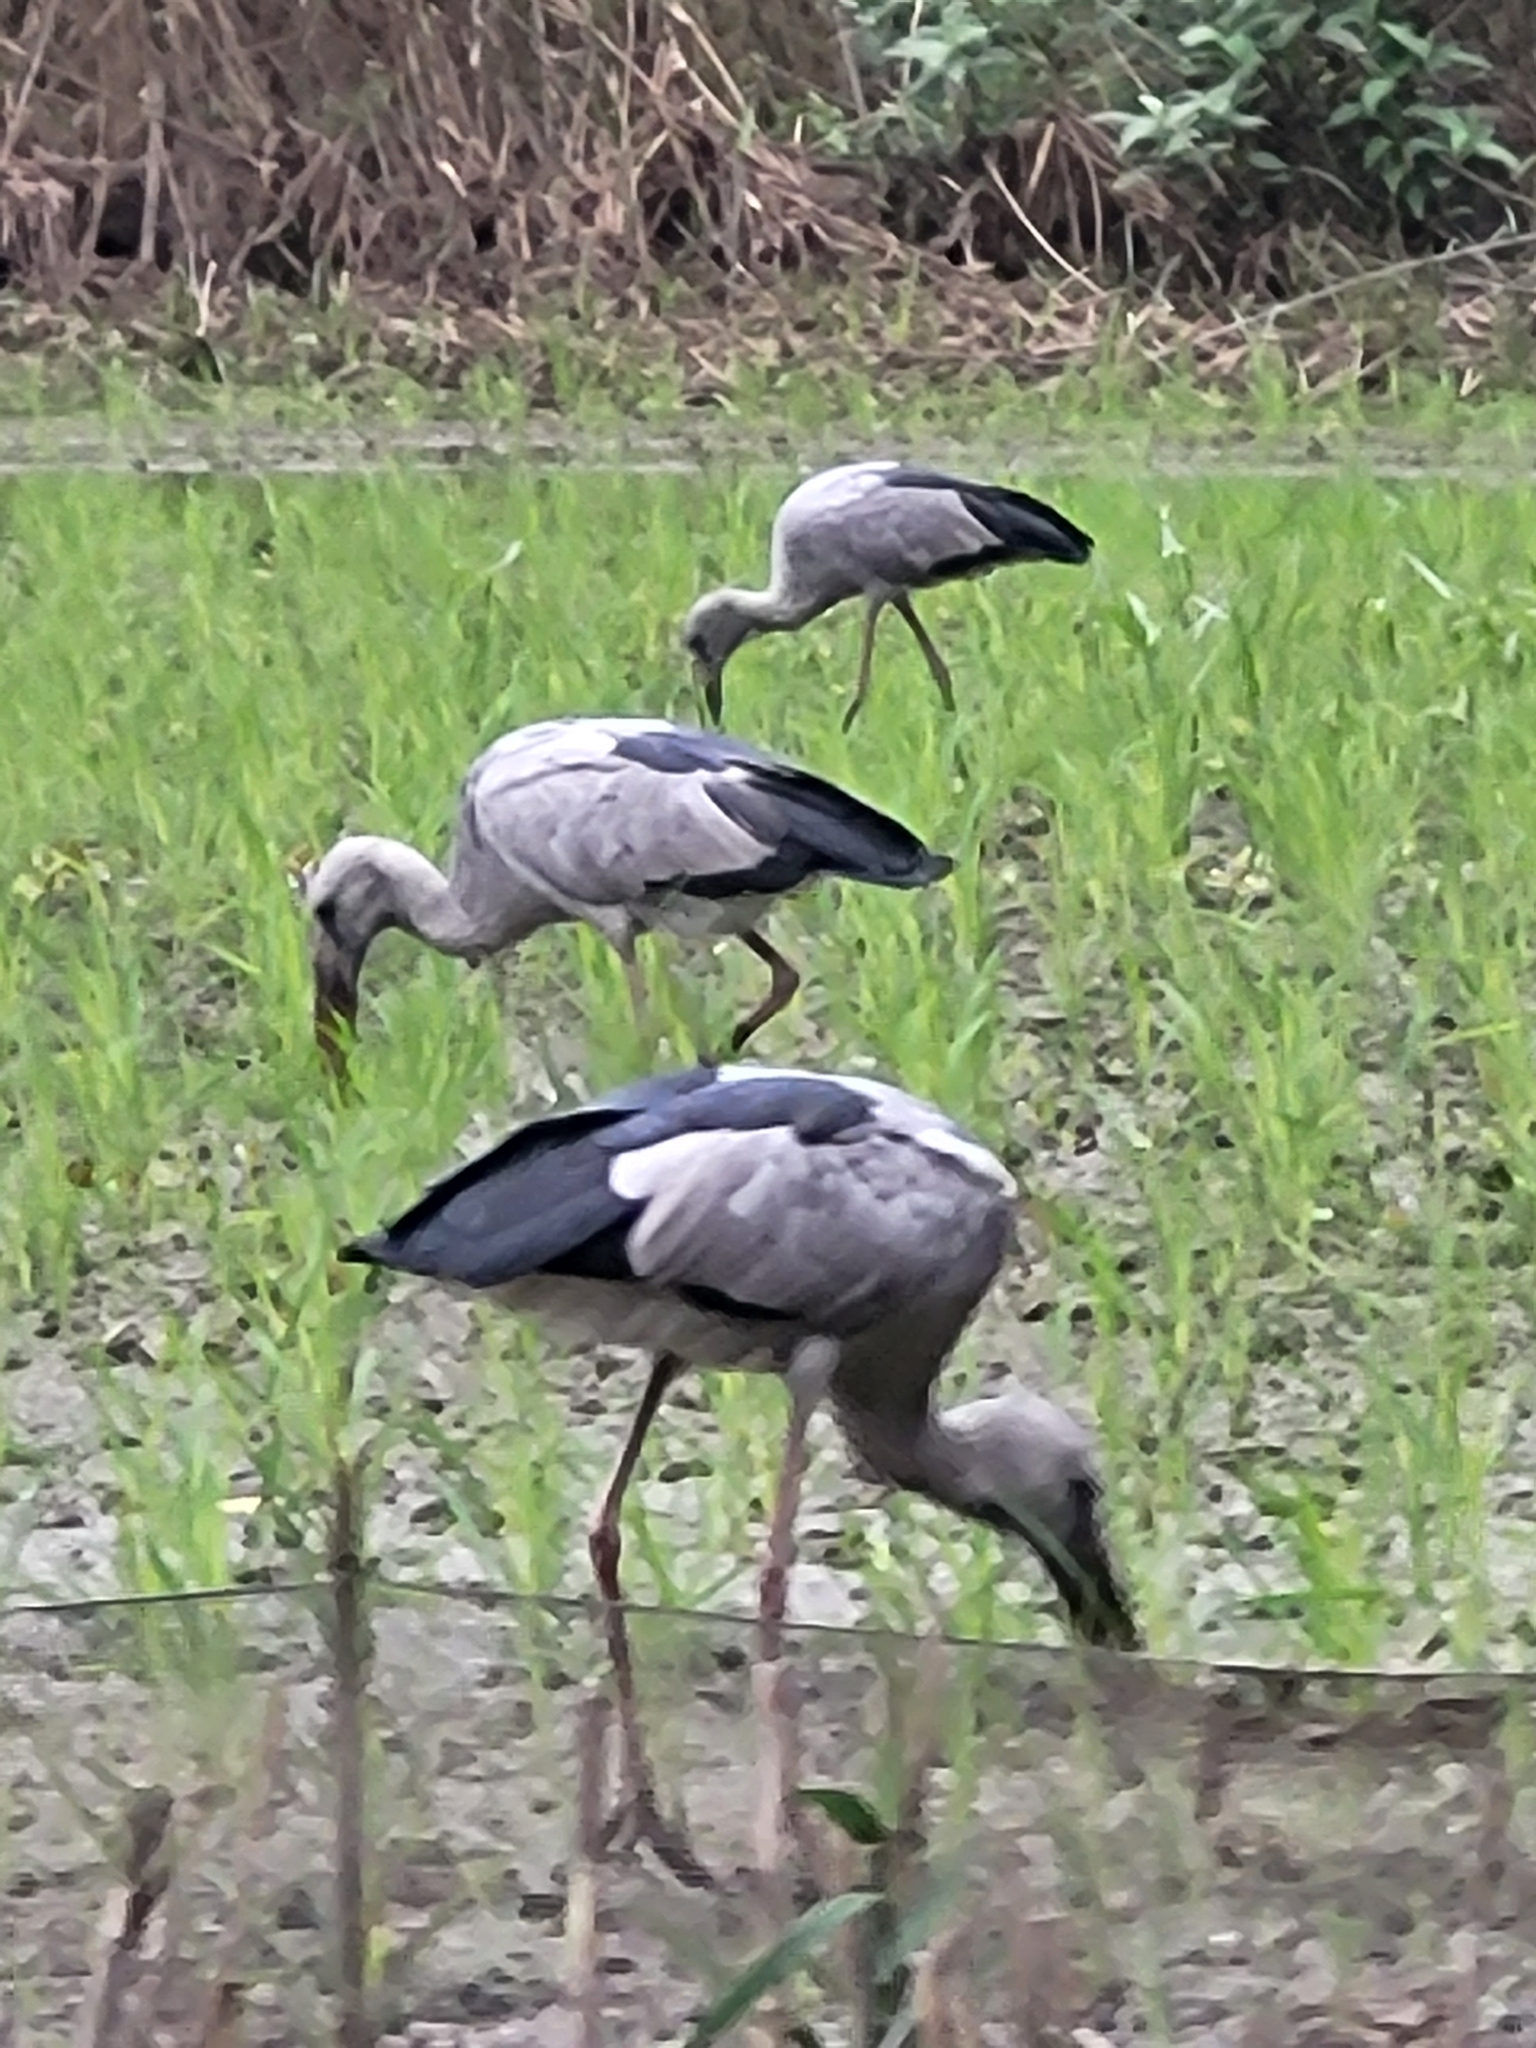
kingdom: Animalia
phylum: Chordata
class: Aves
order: Ciconiiformes
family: Ciconiidae
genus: Anastomus
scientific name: Anastomus oscitans
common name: Asian openbill
